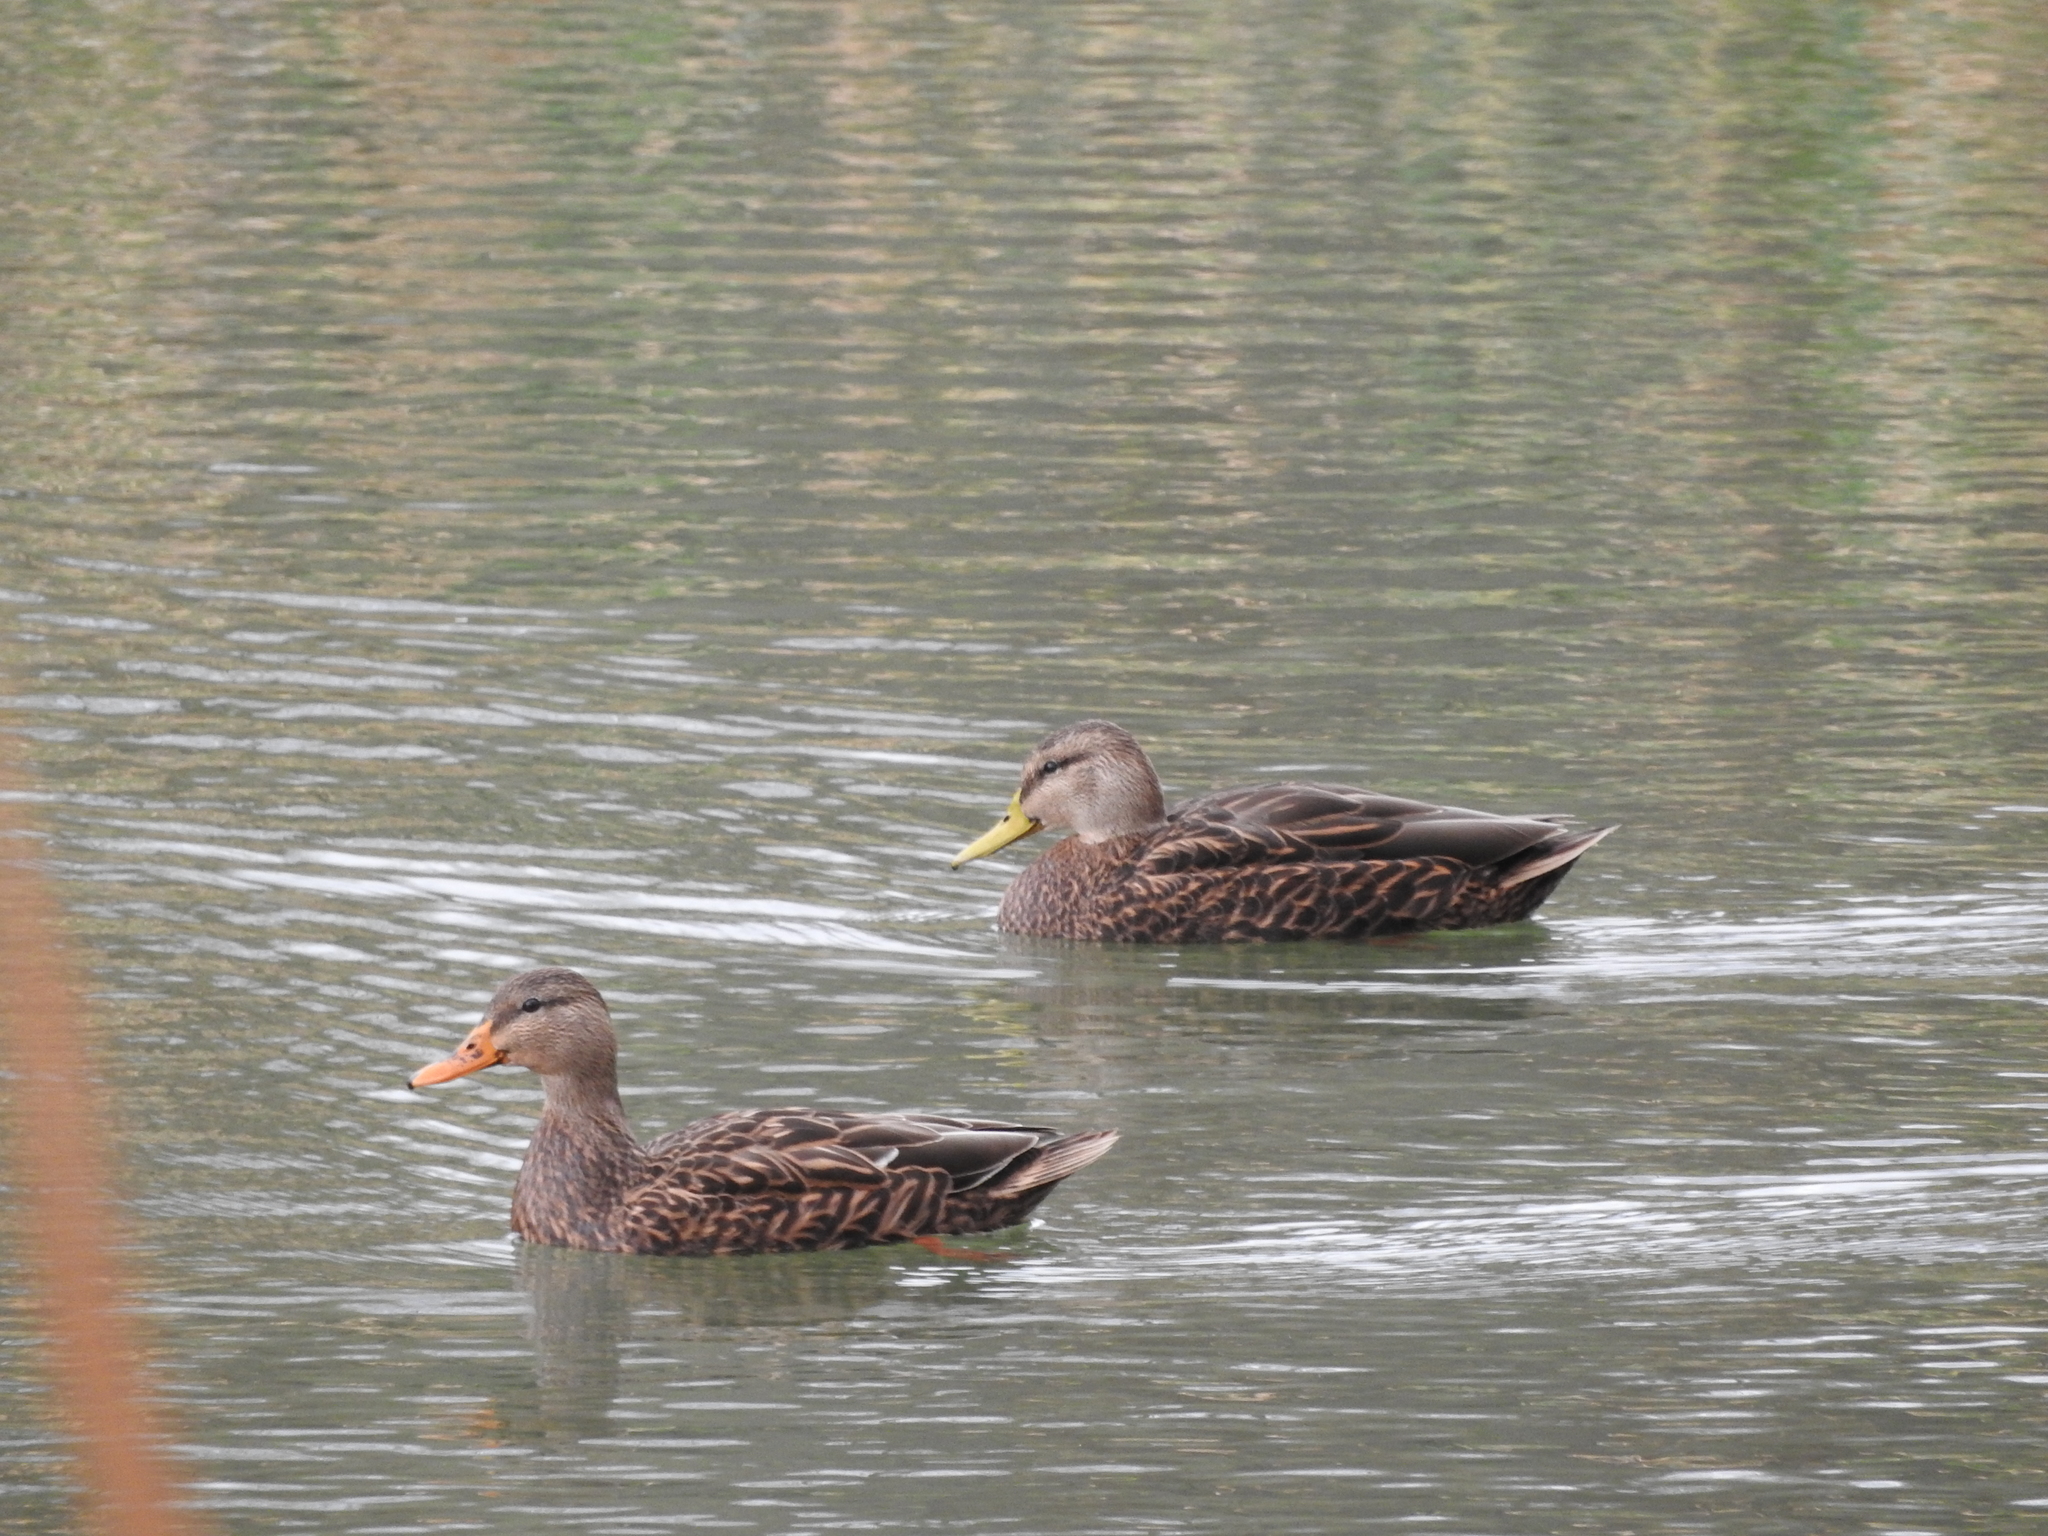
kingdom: Animalia
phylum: Chordata
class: Aves
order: Anseriformes
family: Anatidae
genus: Anas
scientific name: Anas diazi
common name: Mexican duck
